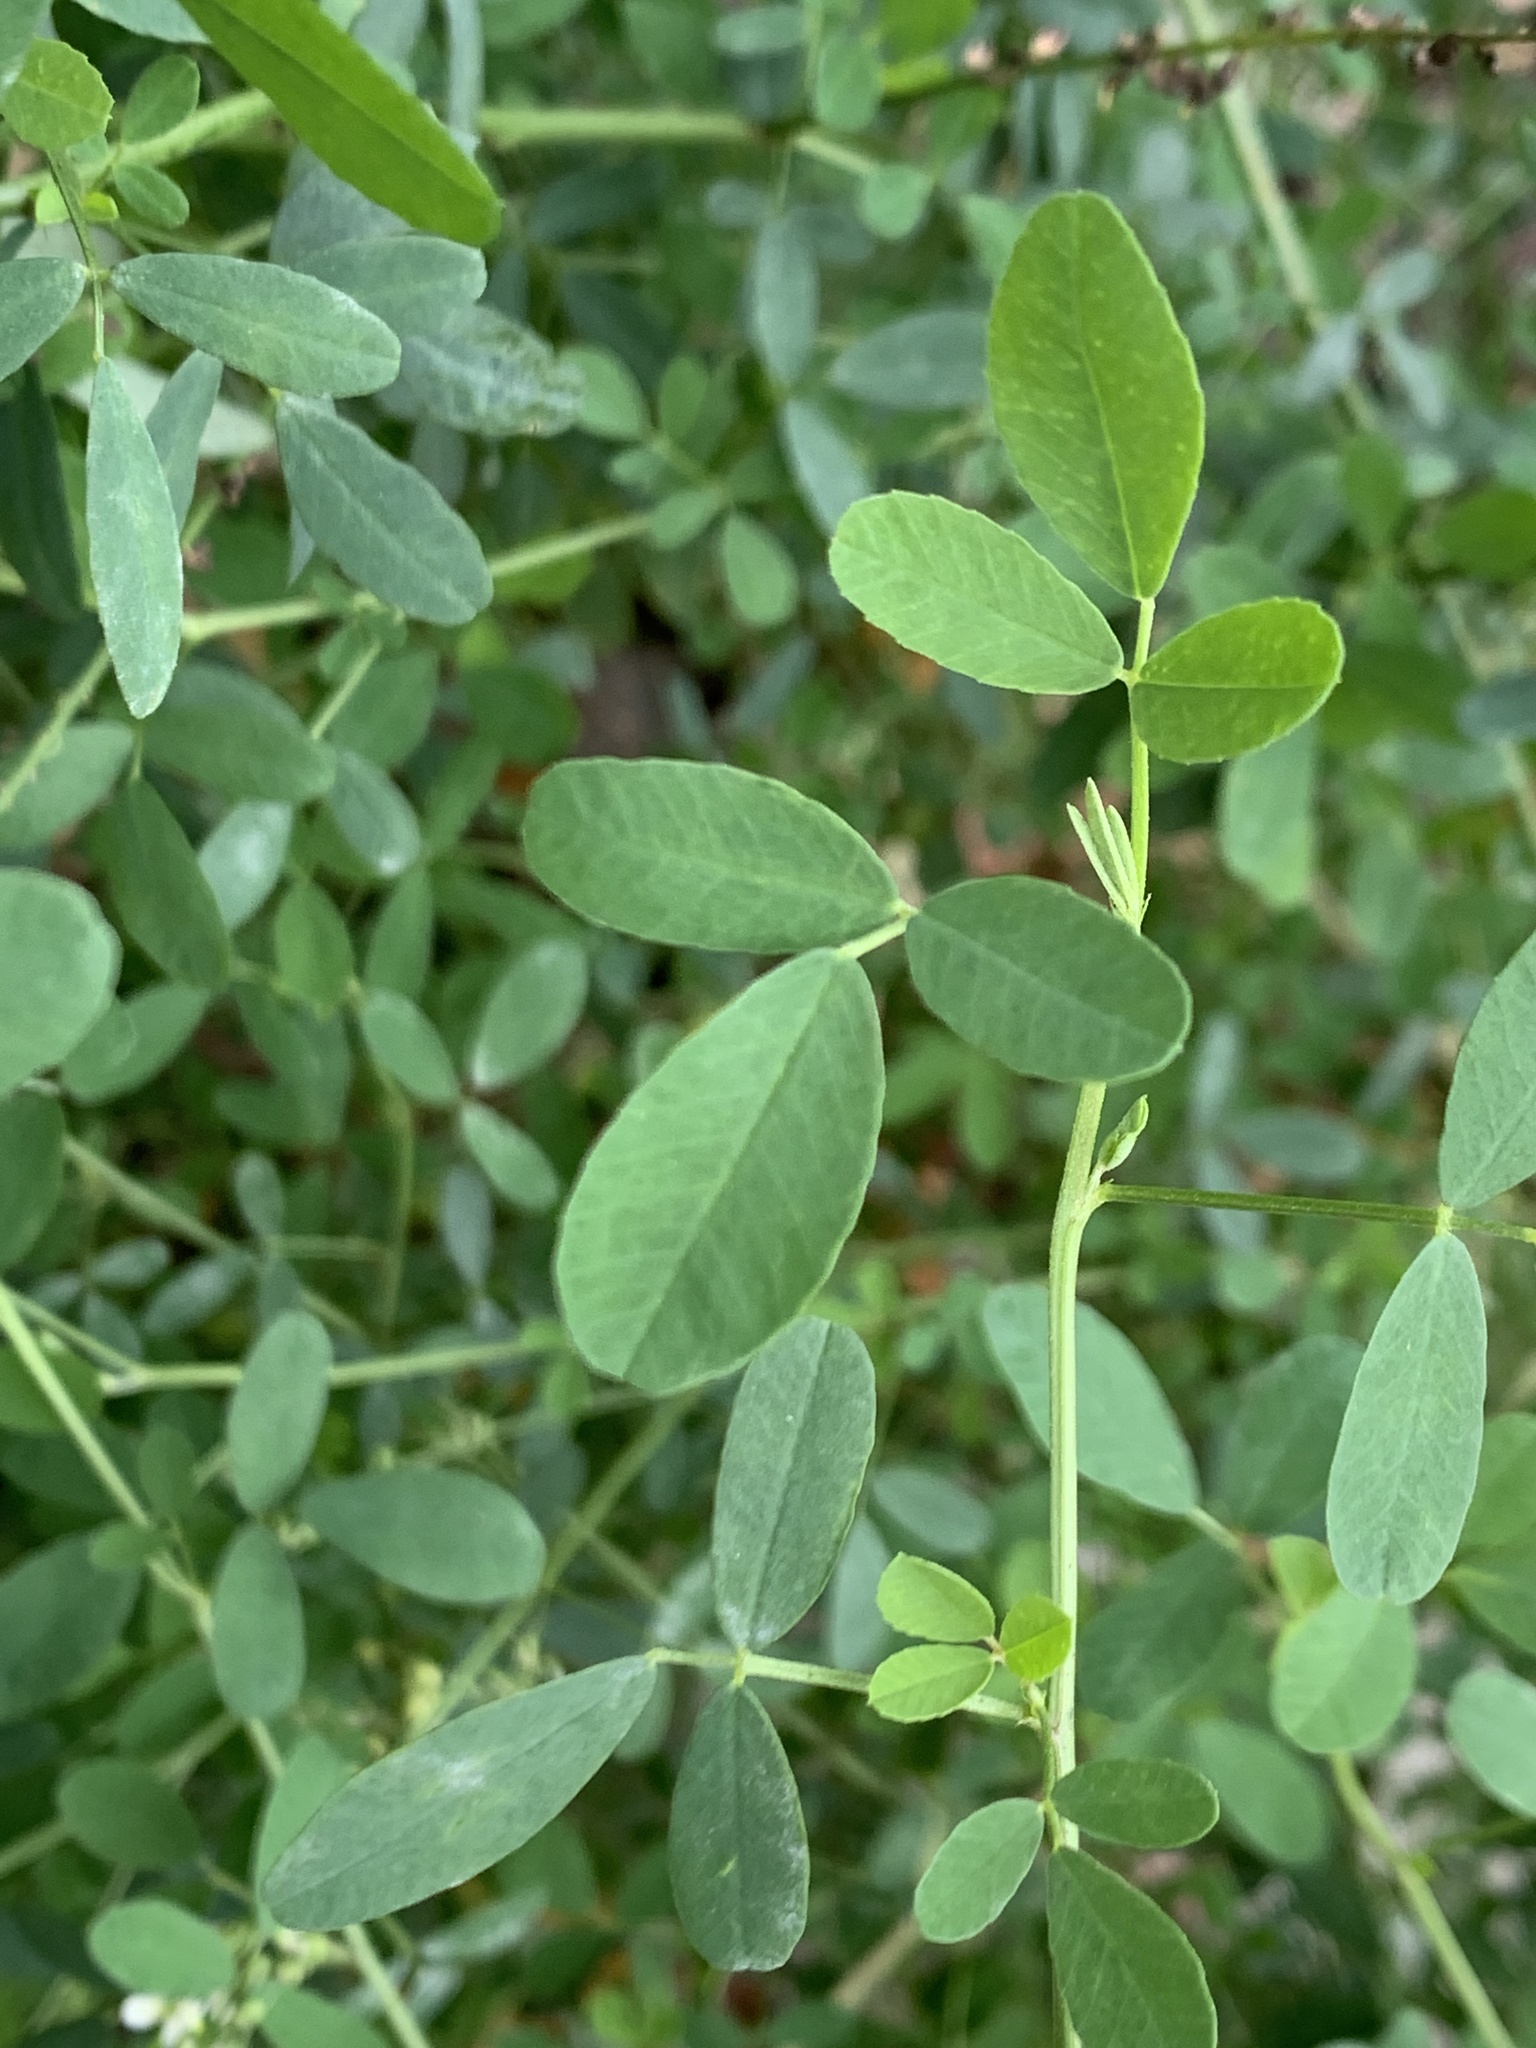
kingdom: Plantae
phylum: Tracheophyta
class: Magnoliopsida
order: Fabales
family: Fabaceae
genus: Melilotus
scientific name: Melilotus albus
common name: White melilot
